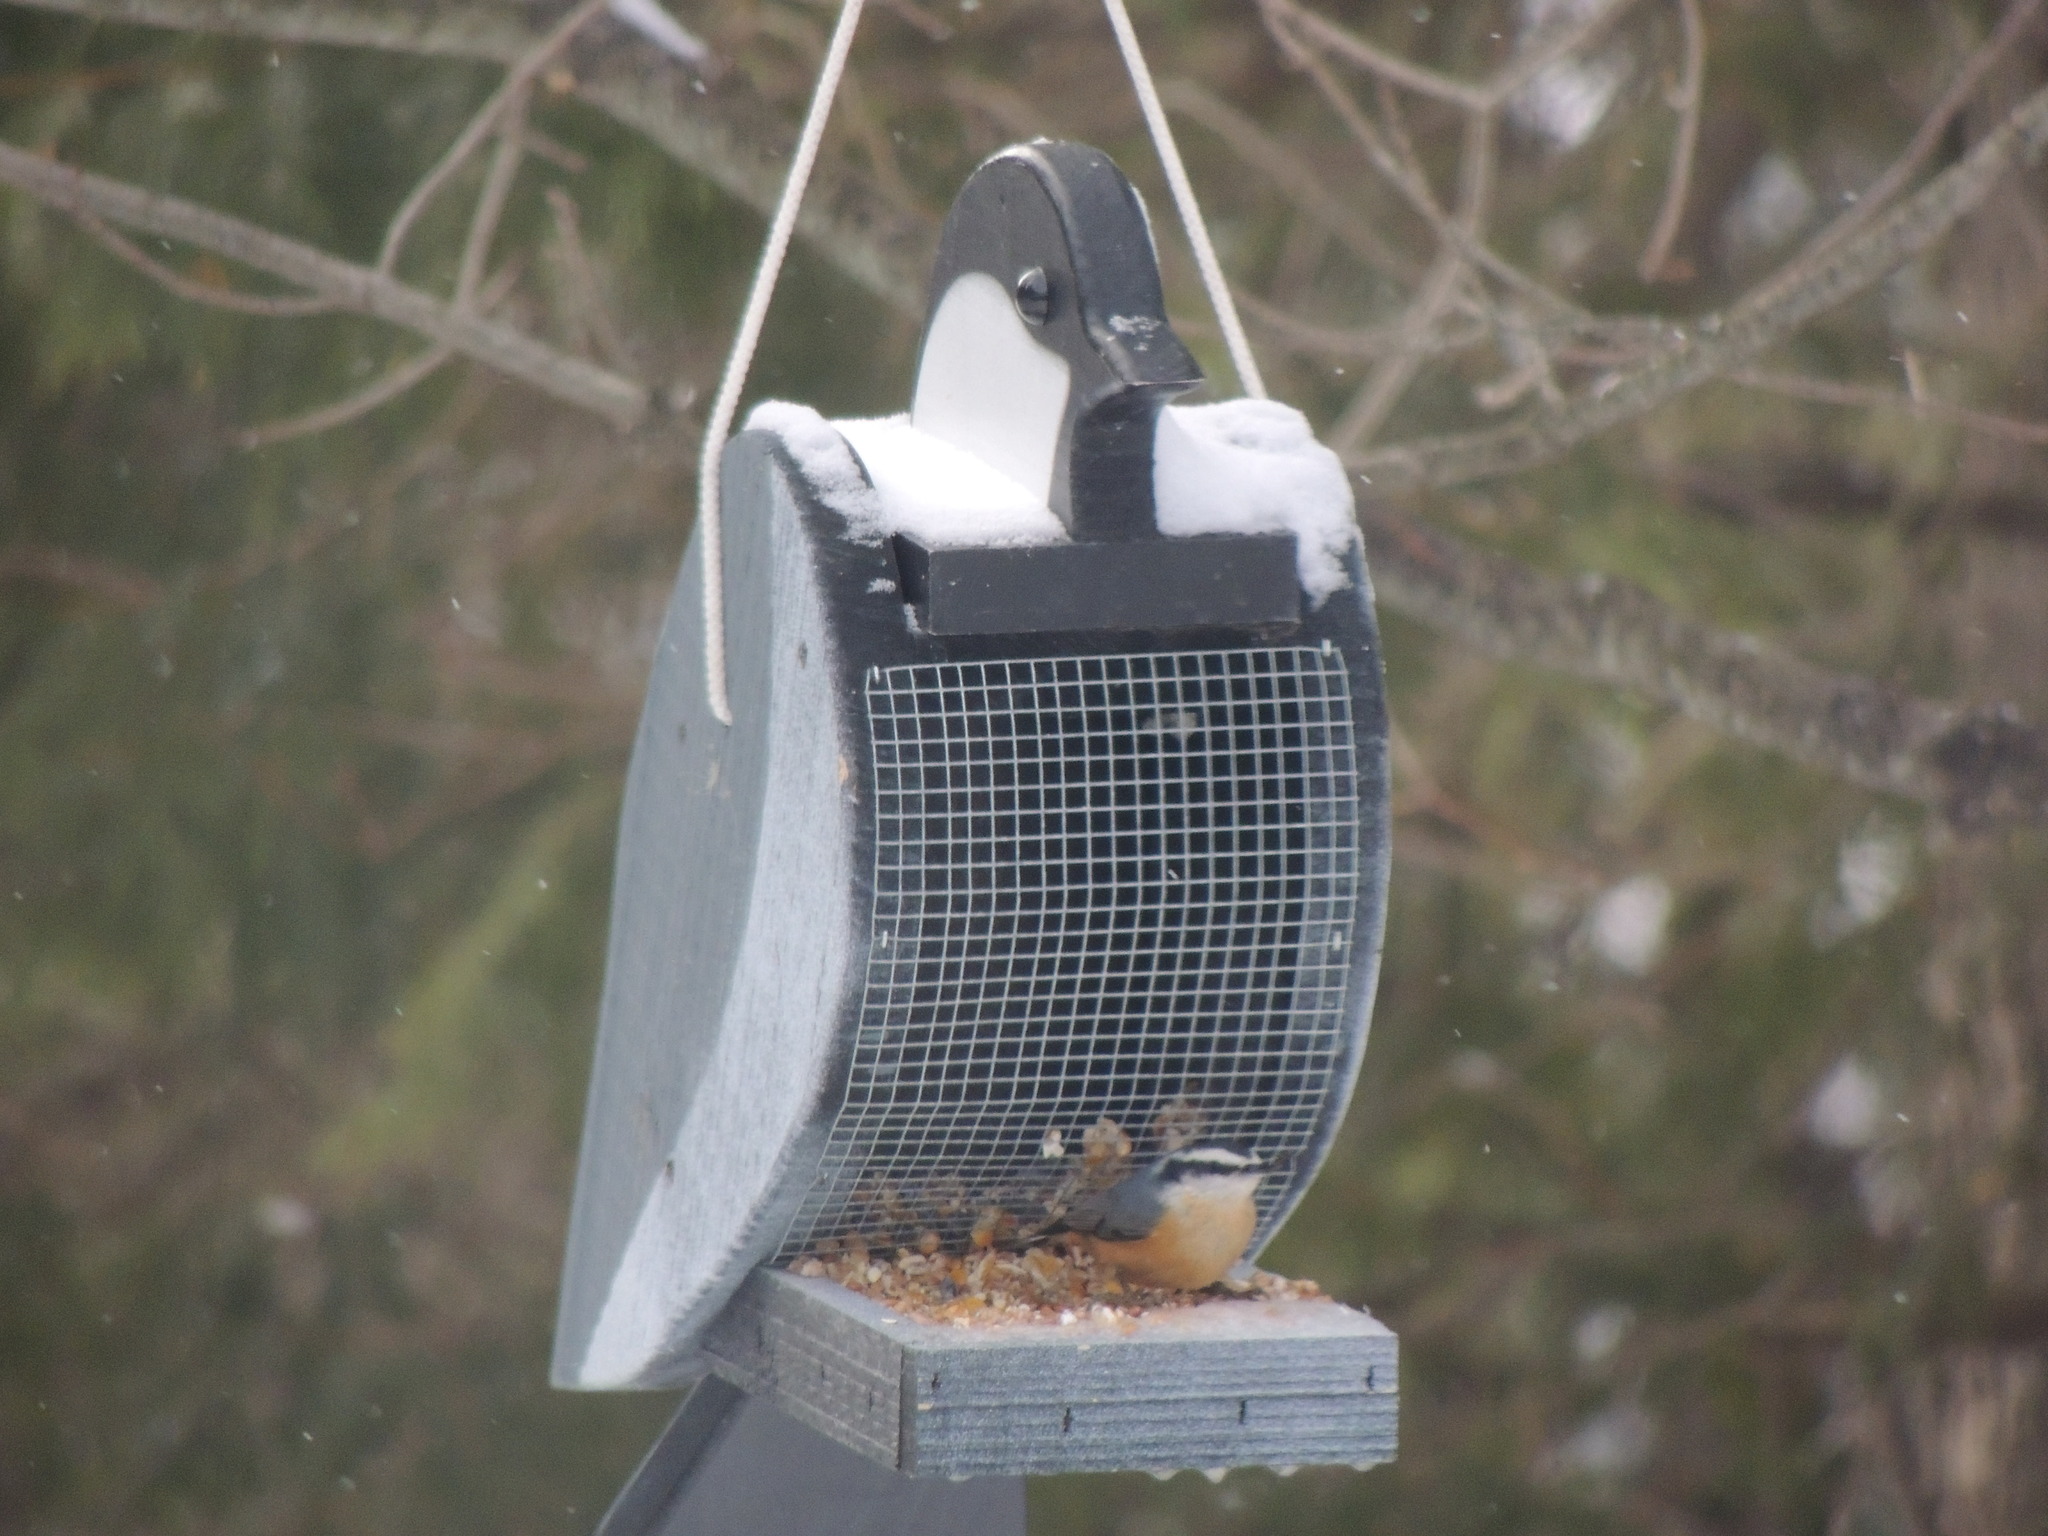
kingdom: Animalia
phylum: Chordata
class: Aves
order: Passeriformes
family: Sittidae
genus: Sitta
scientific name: Sitta canadensis
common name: Red-breasted nuthatch
